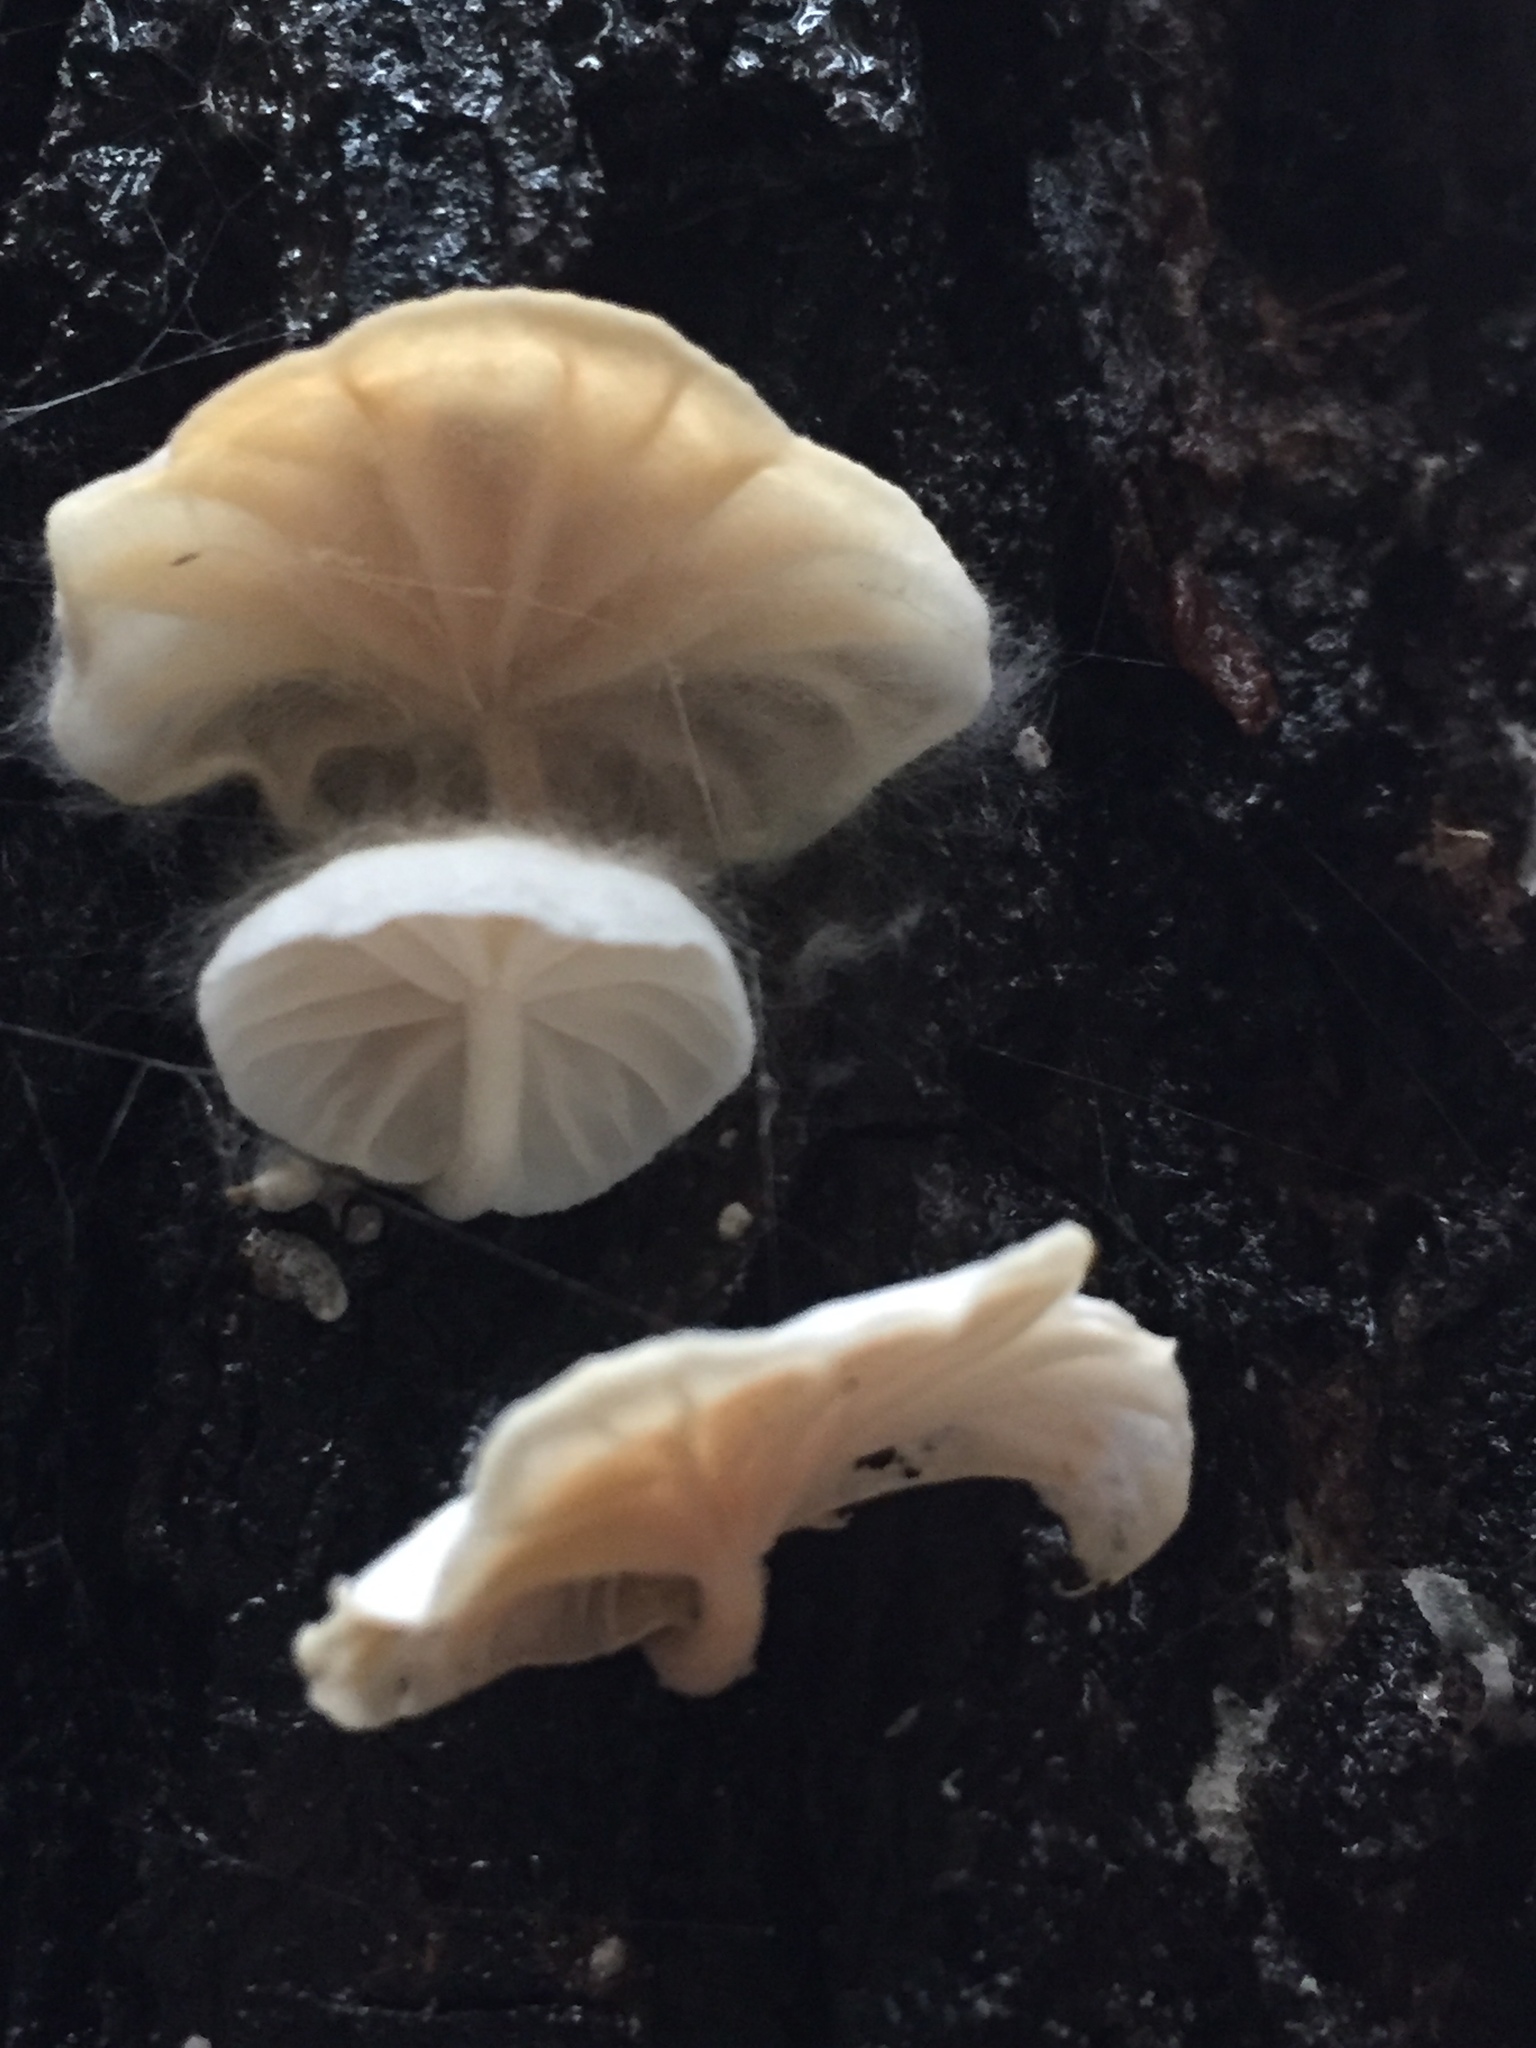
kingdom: Fungi
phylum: Basidiomycota
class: Agaricomycetes
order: Agaricales
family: Omphalotaceae
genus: Marasmiellus
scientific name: Marasmiellus candidus
